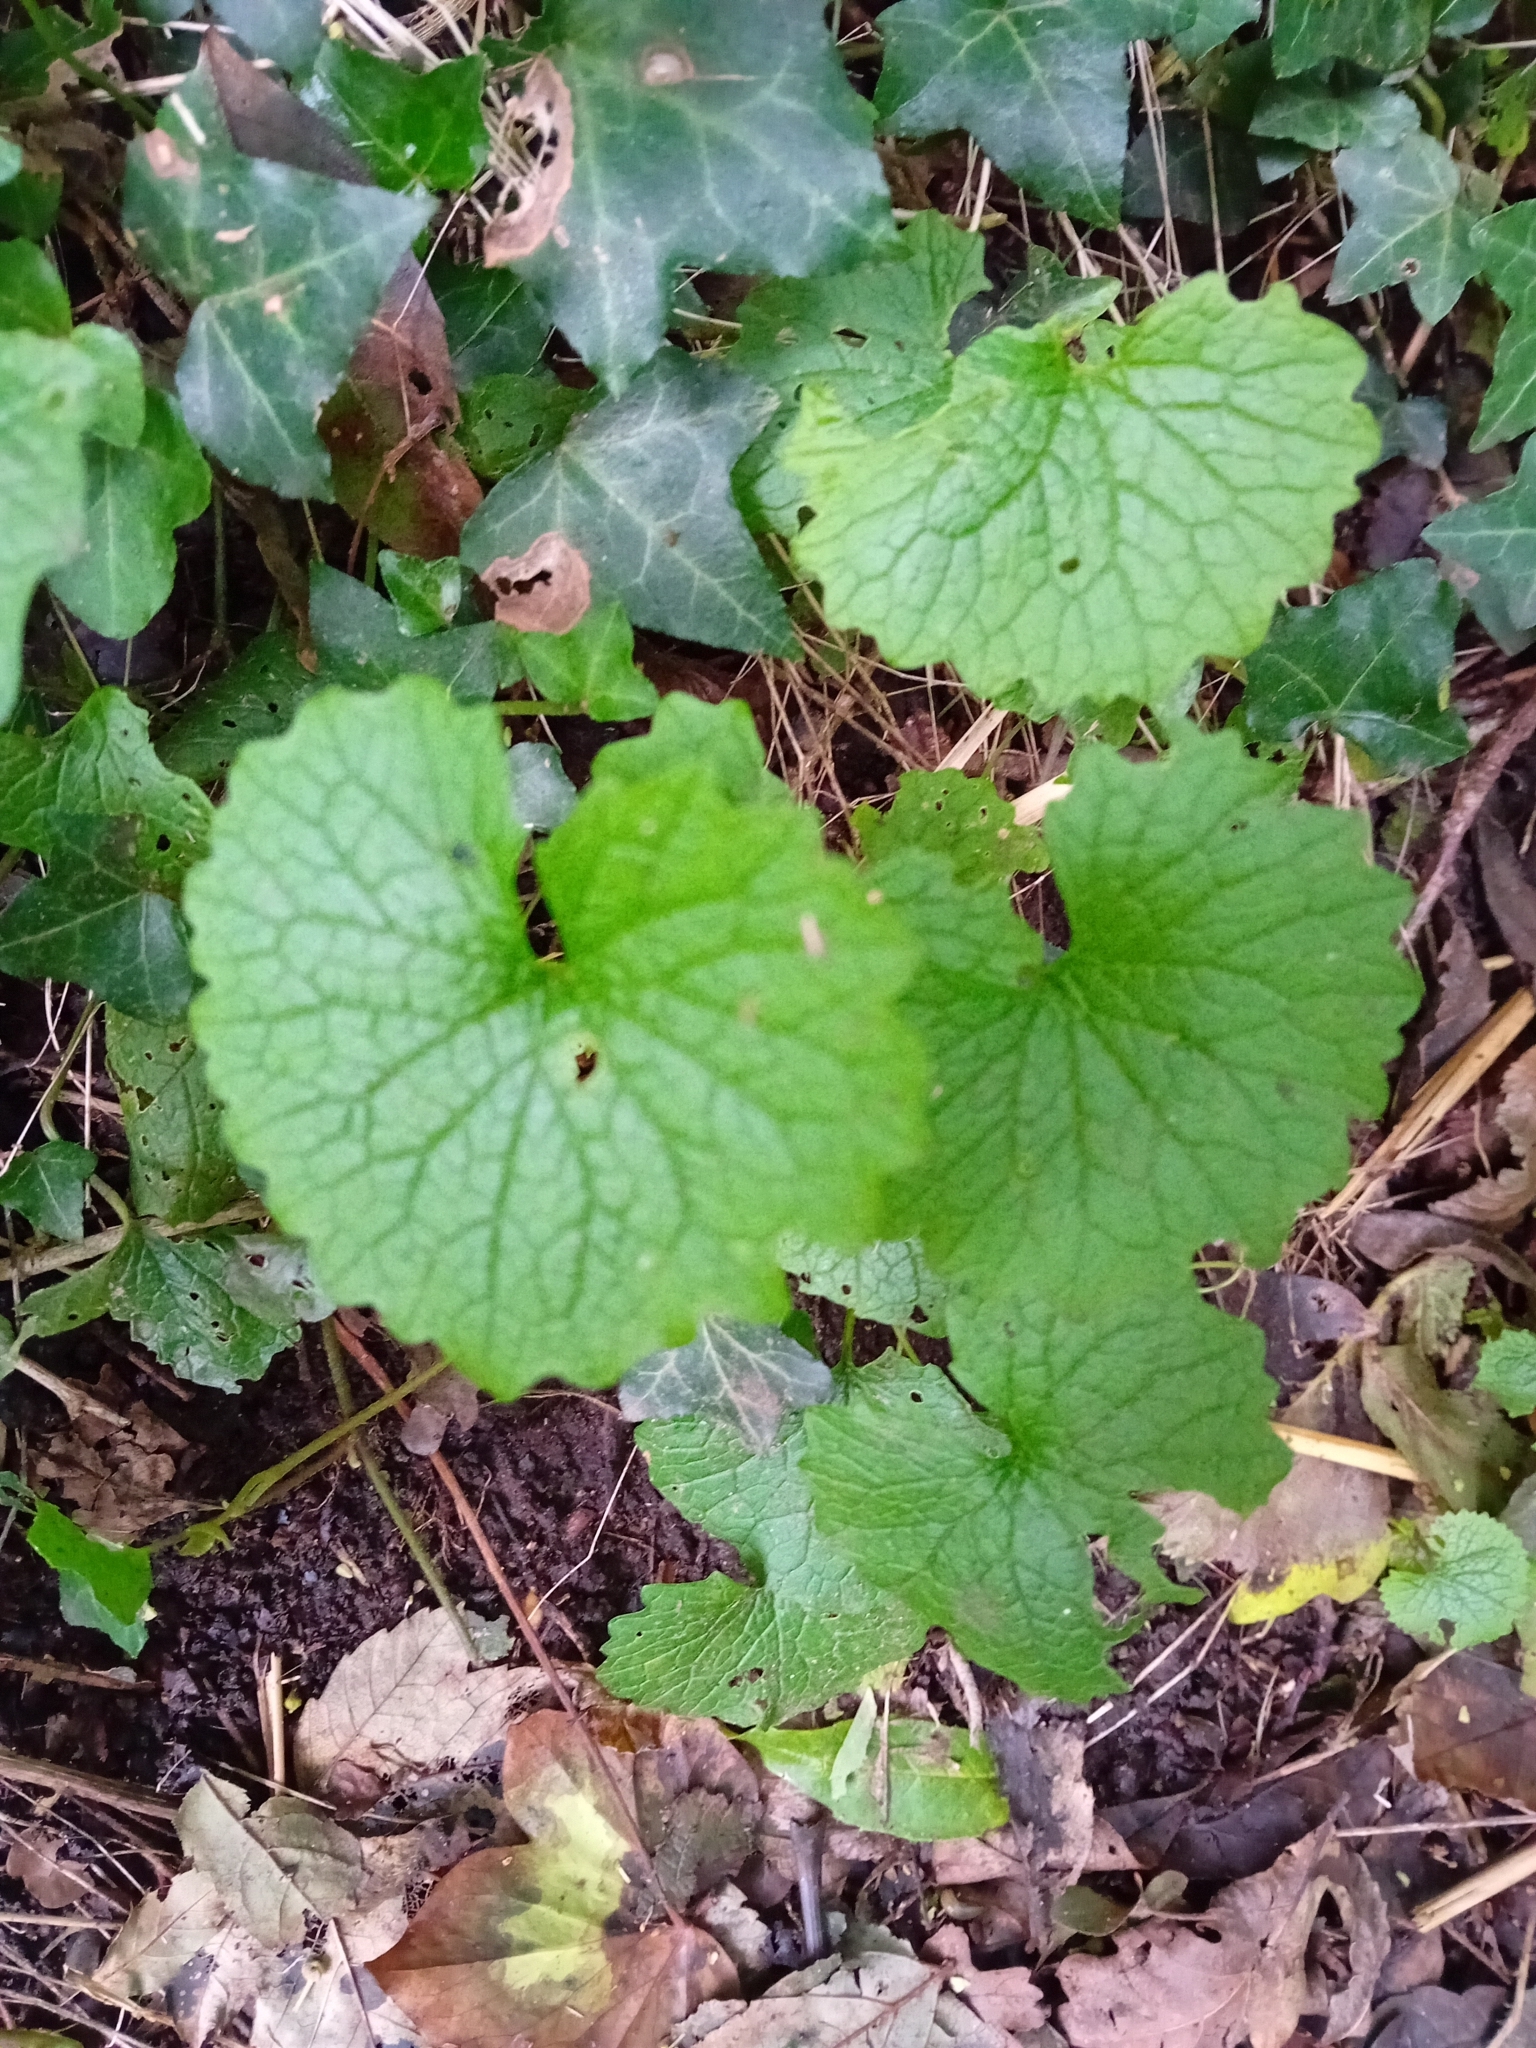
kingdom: Plantae
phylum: Tracheophyta
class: Magnoliopsida
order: Brassicales
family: Brassicaceae
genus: Alliaria
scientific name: Alliaria petiolata
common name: Garlic mustard
